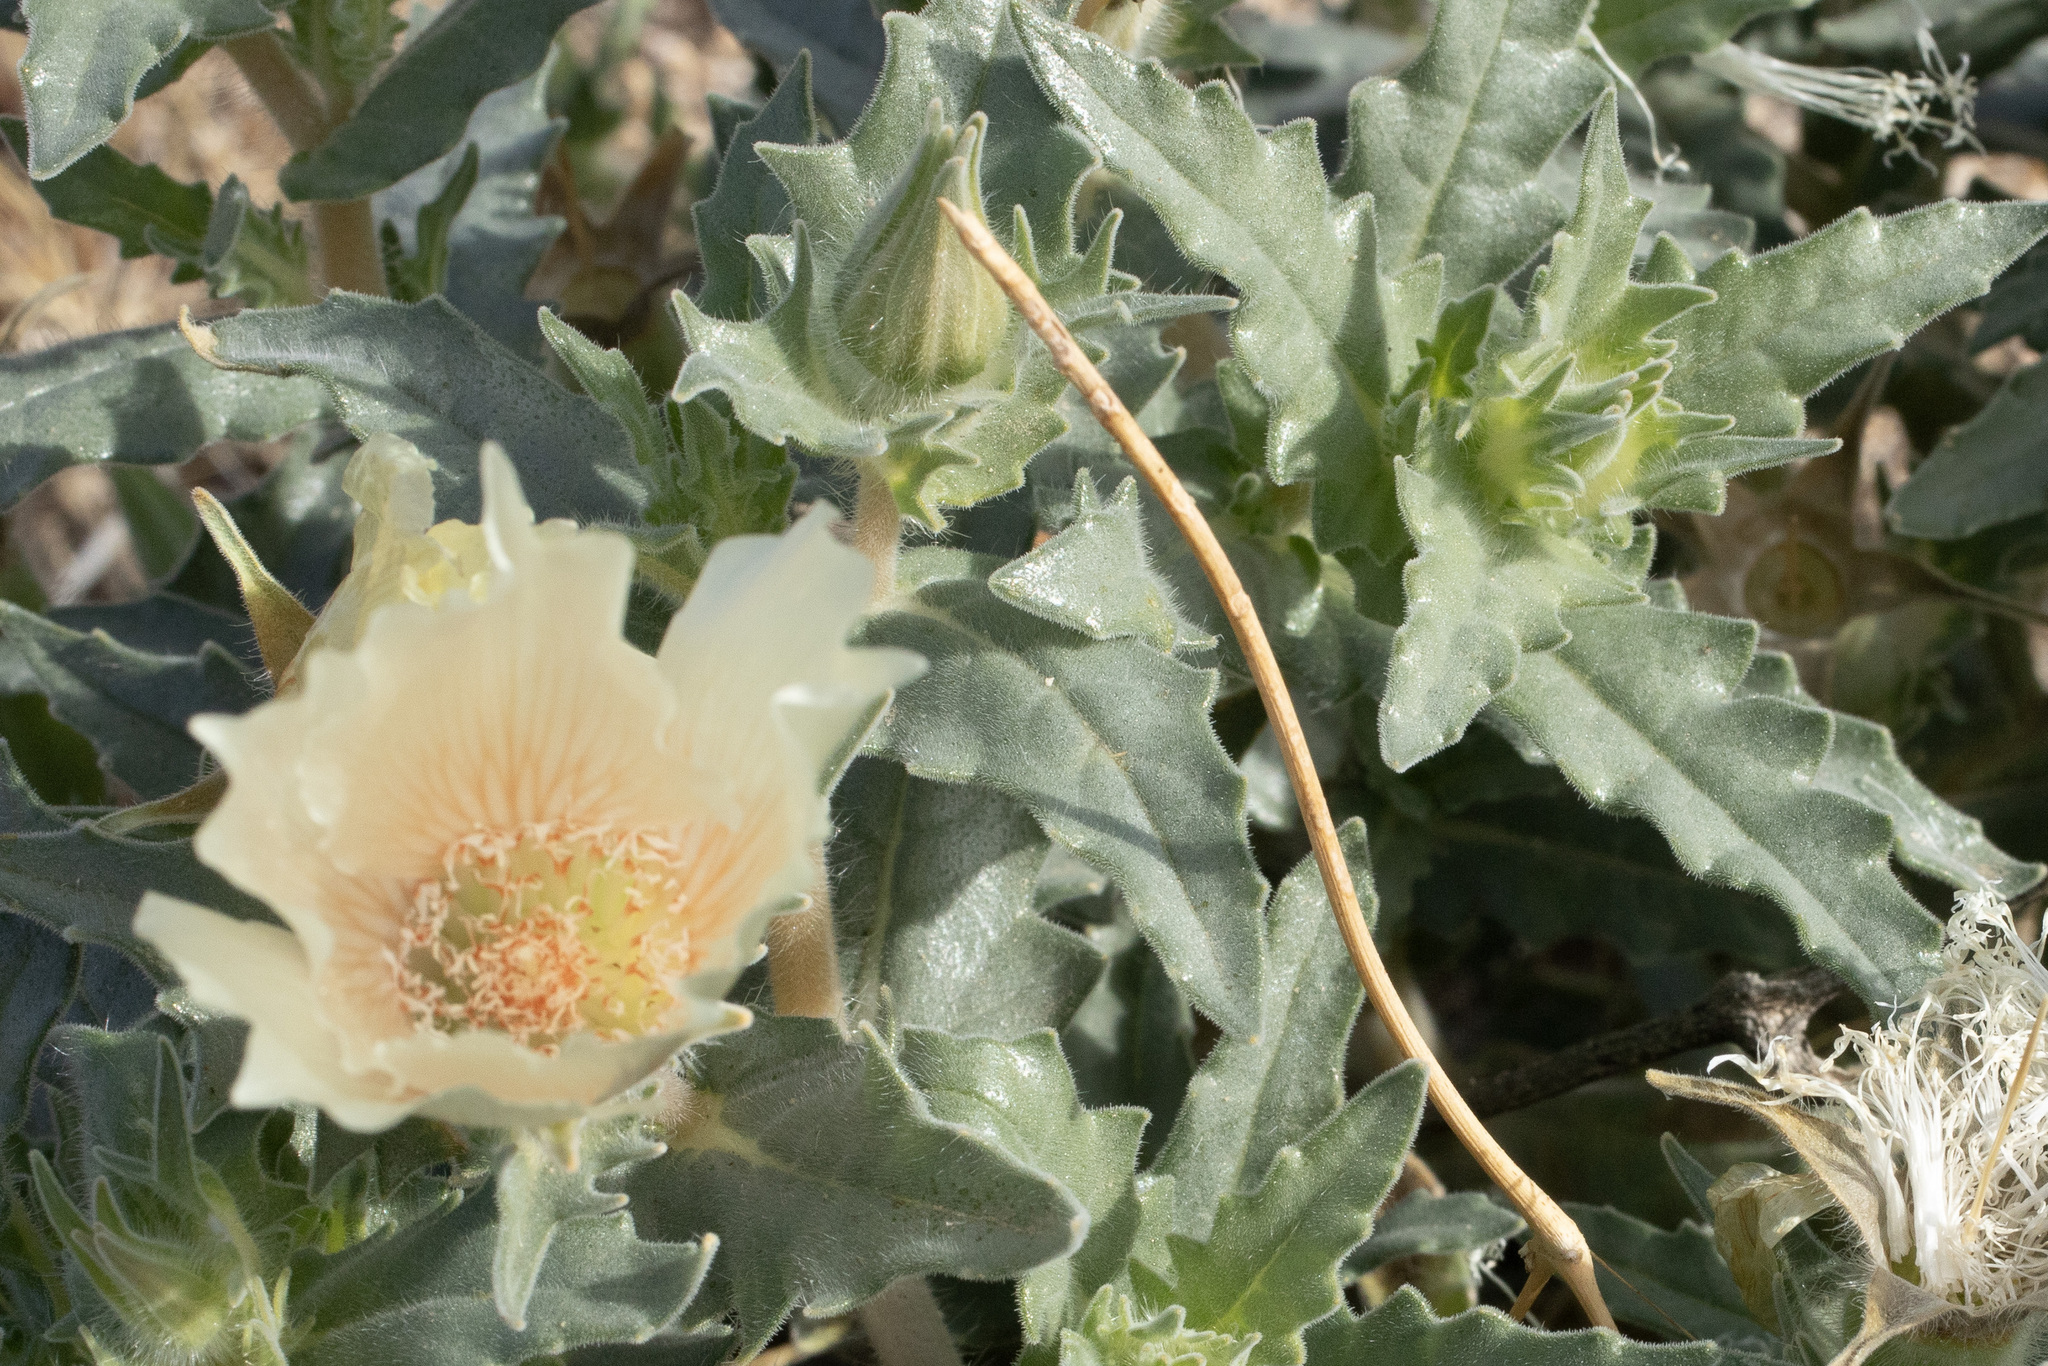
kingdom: Plantae
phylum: Tracheophyta
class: Magnoliopsida
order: Cornales
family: Loasaceae
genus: Mentzelia
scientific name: Mentzelia involucrata
